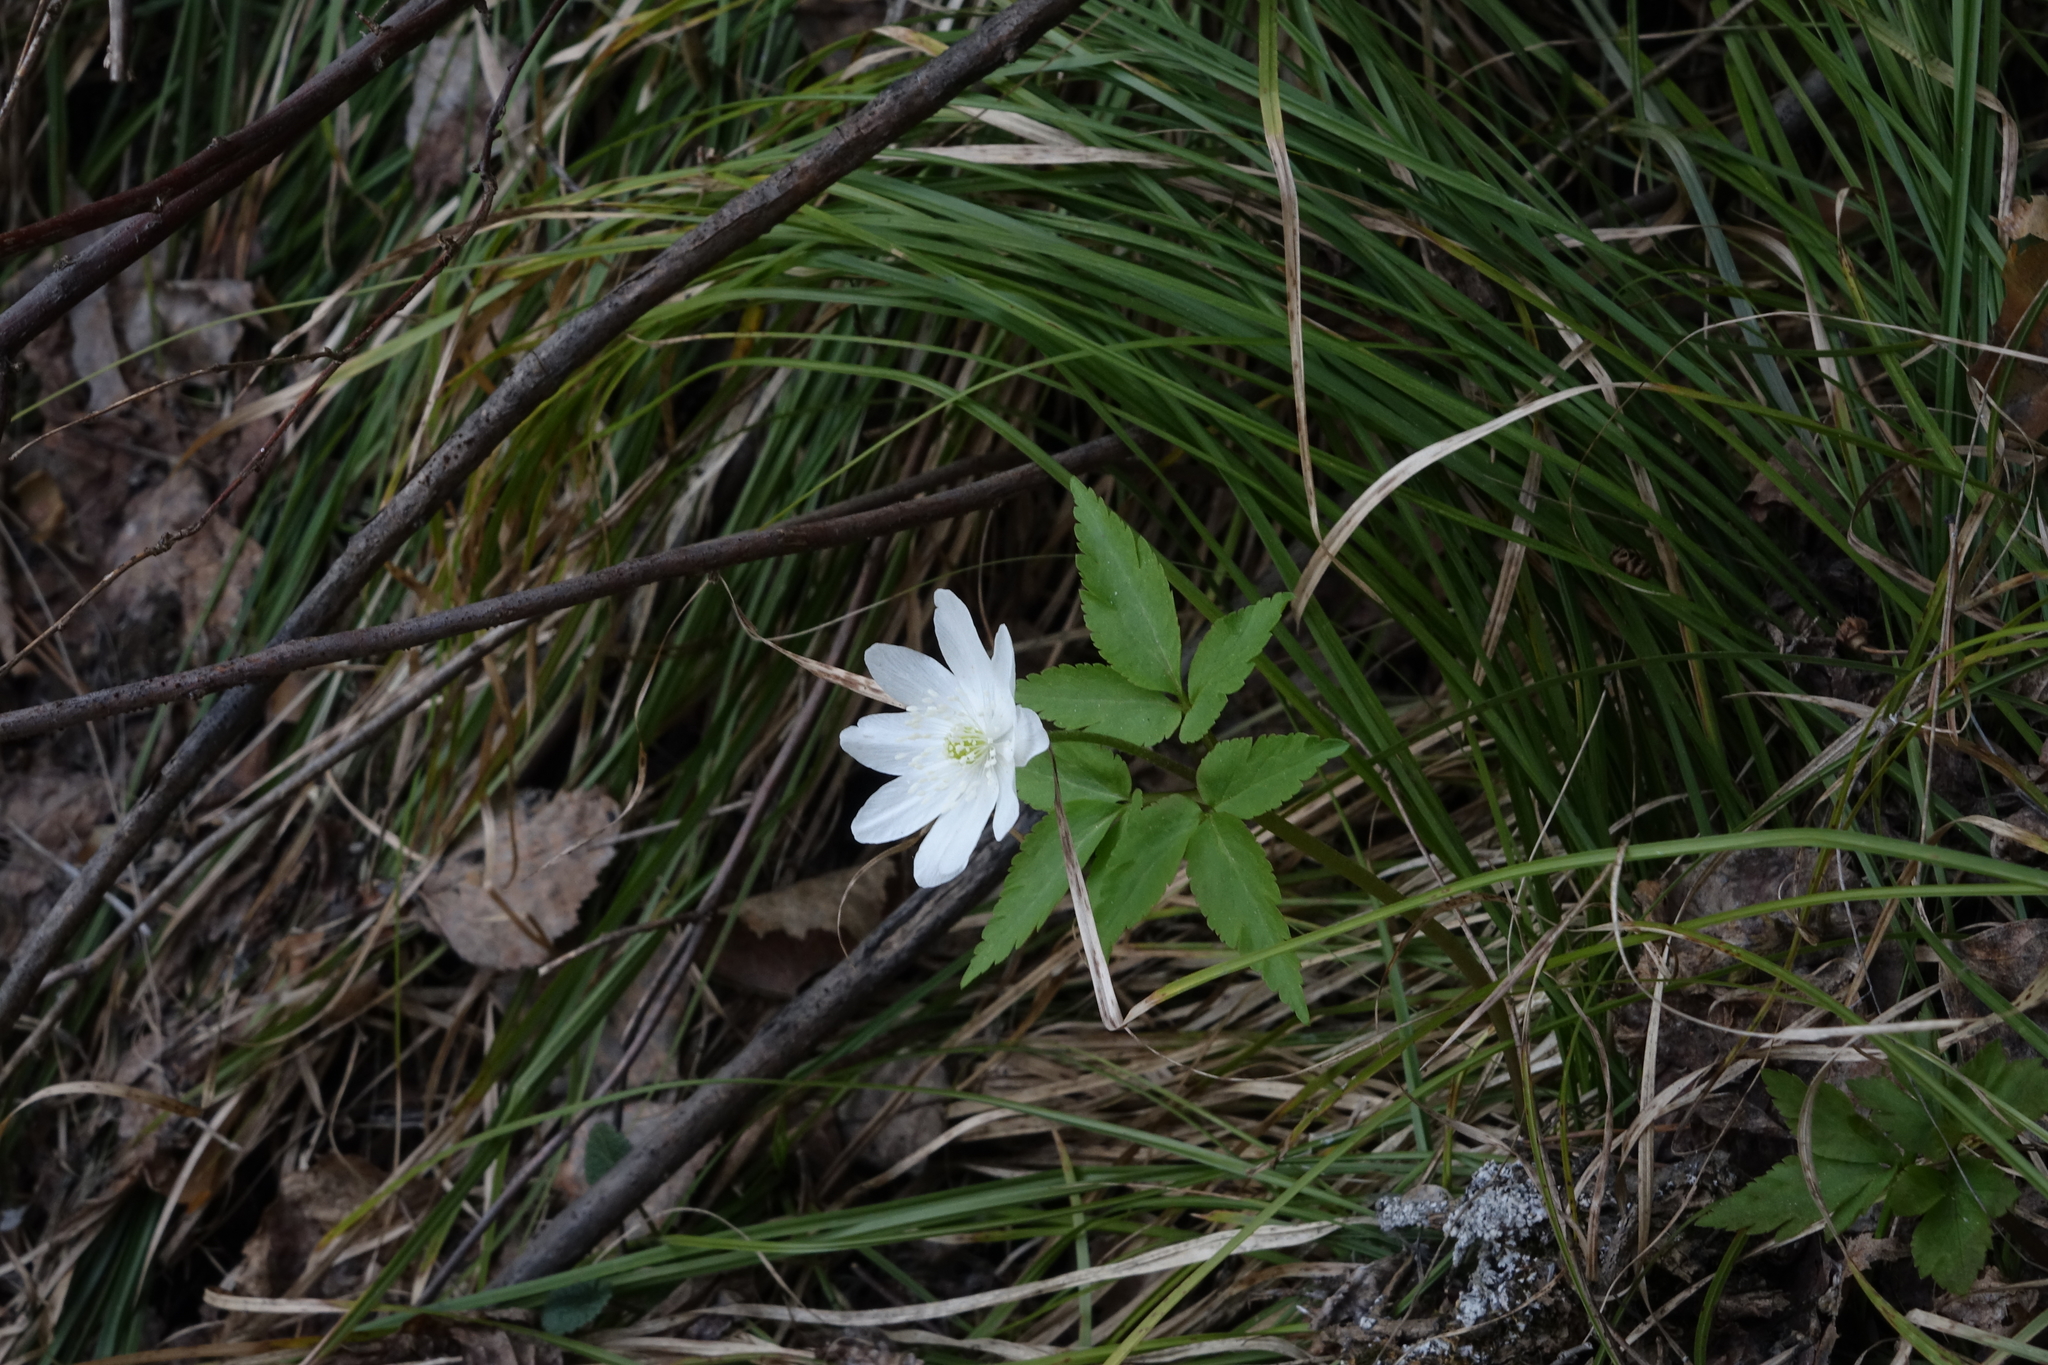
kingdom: Plantae
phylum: Tracheophyta
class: Magnoliopsida
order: Ranunculales
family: Ranunculaceae
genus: Anemone
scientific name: Anemone altaica
